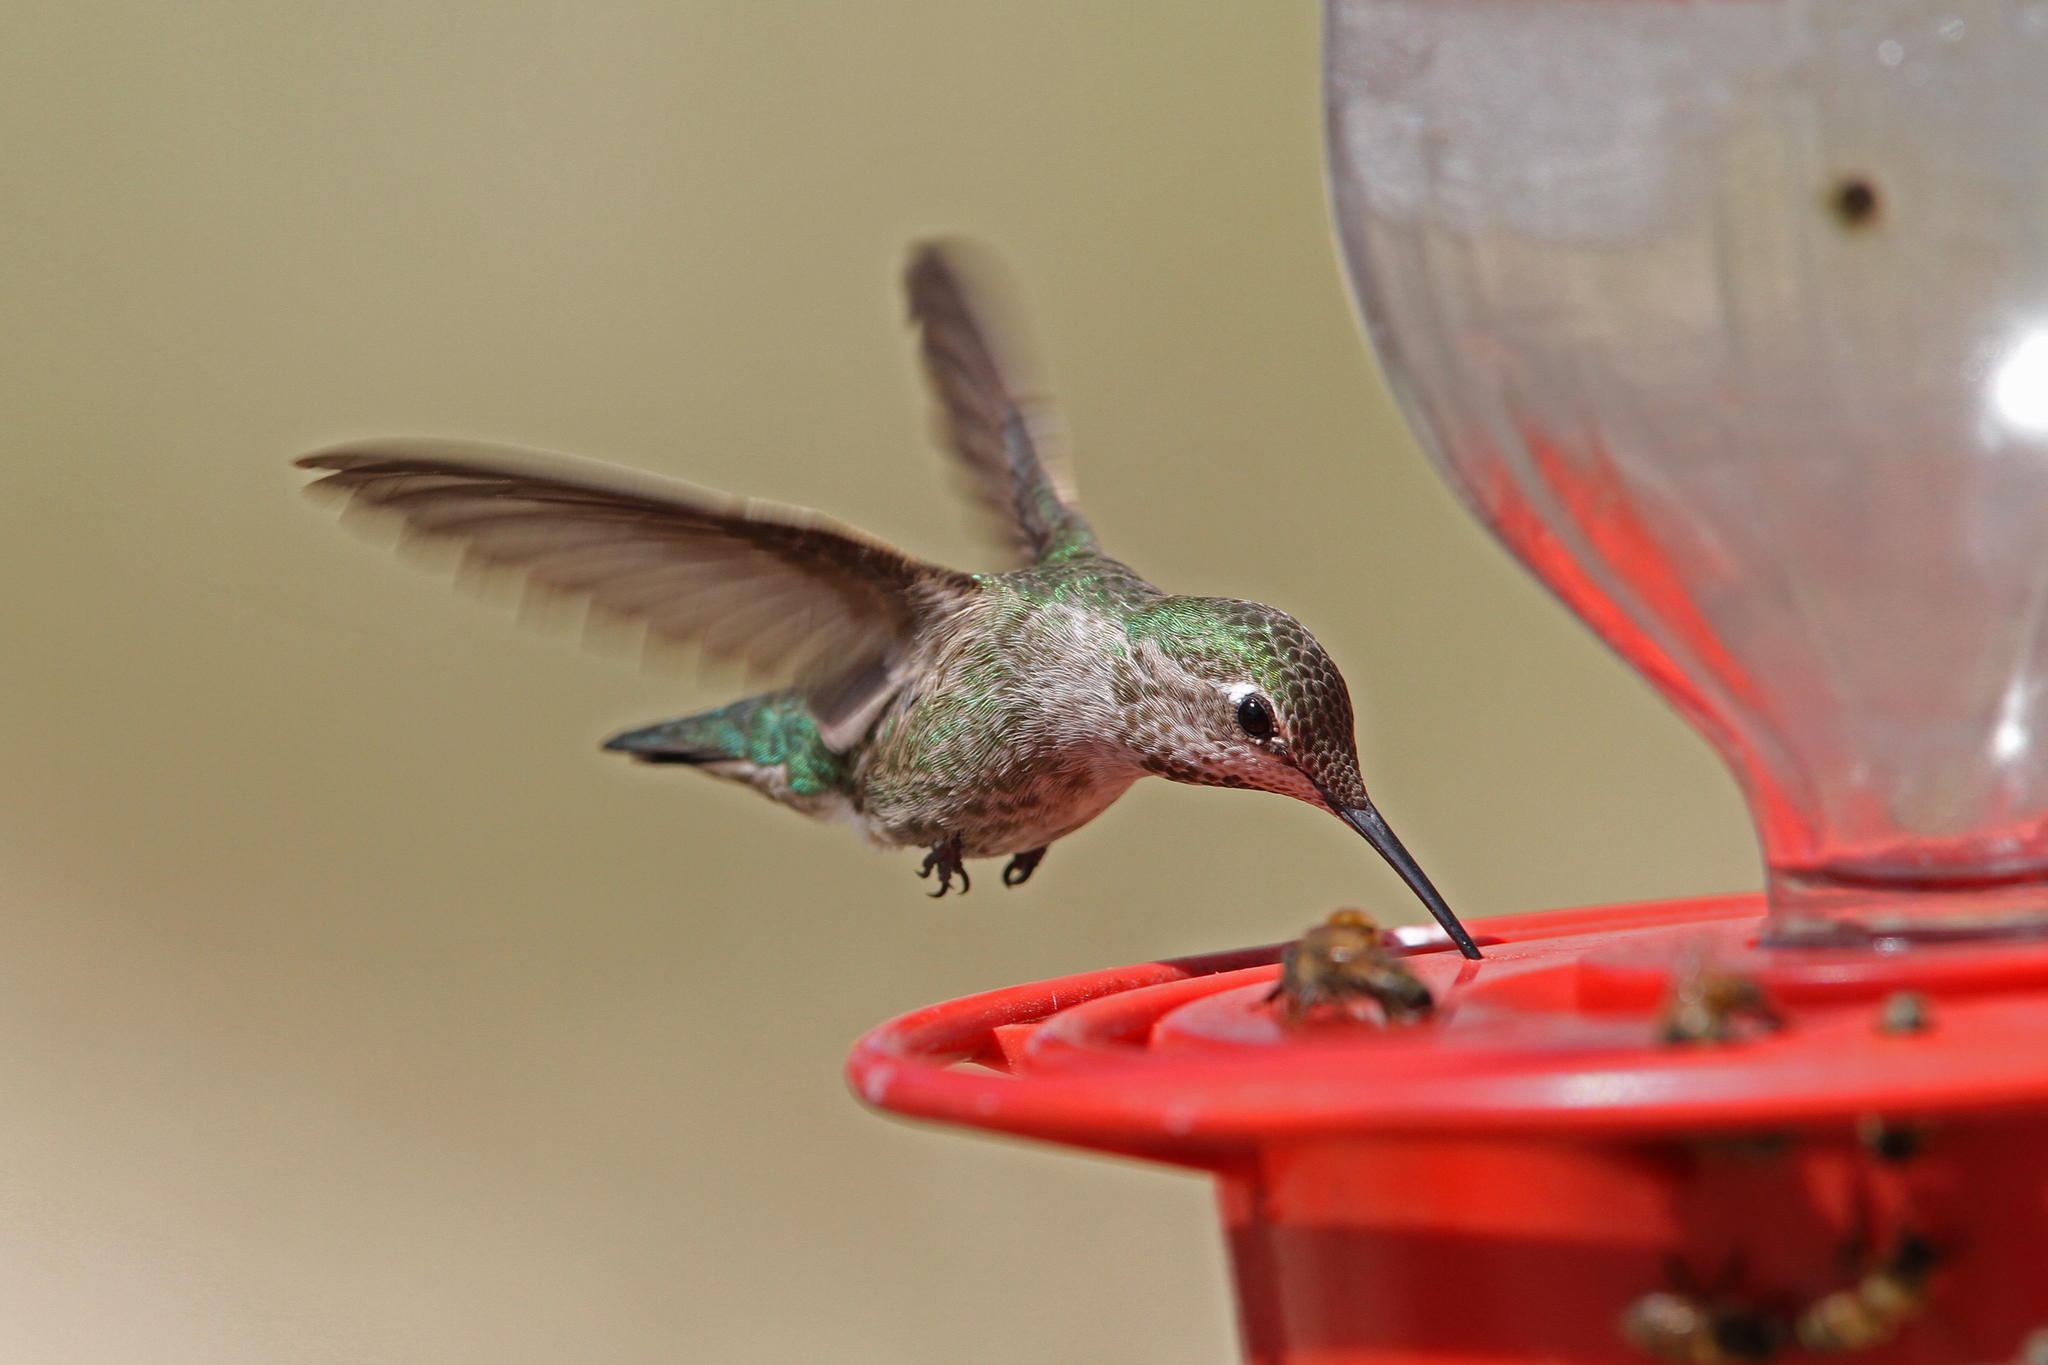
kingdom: Animalia
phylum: Chordata
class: Aves
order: Apodiformes
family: Trochilidae
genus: Calypte
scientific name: Calypte anna
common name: Anna's hummingbird
